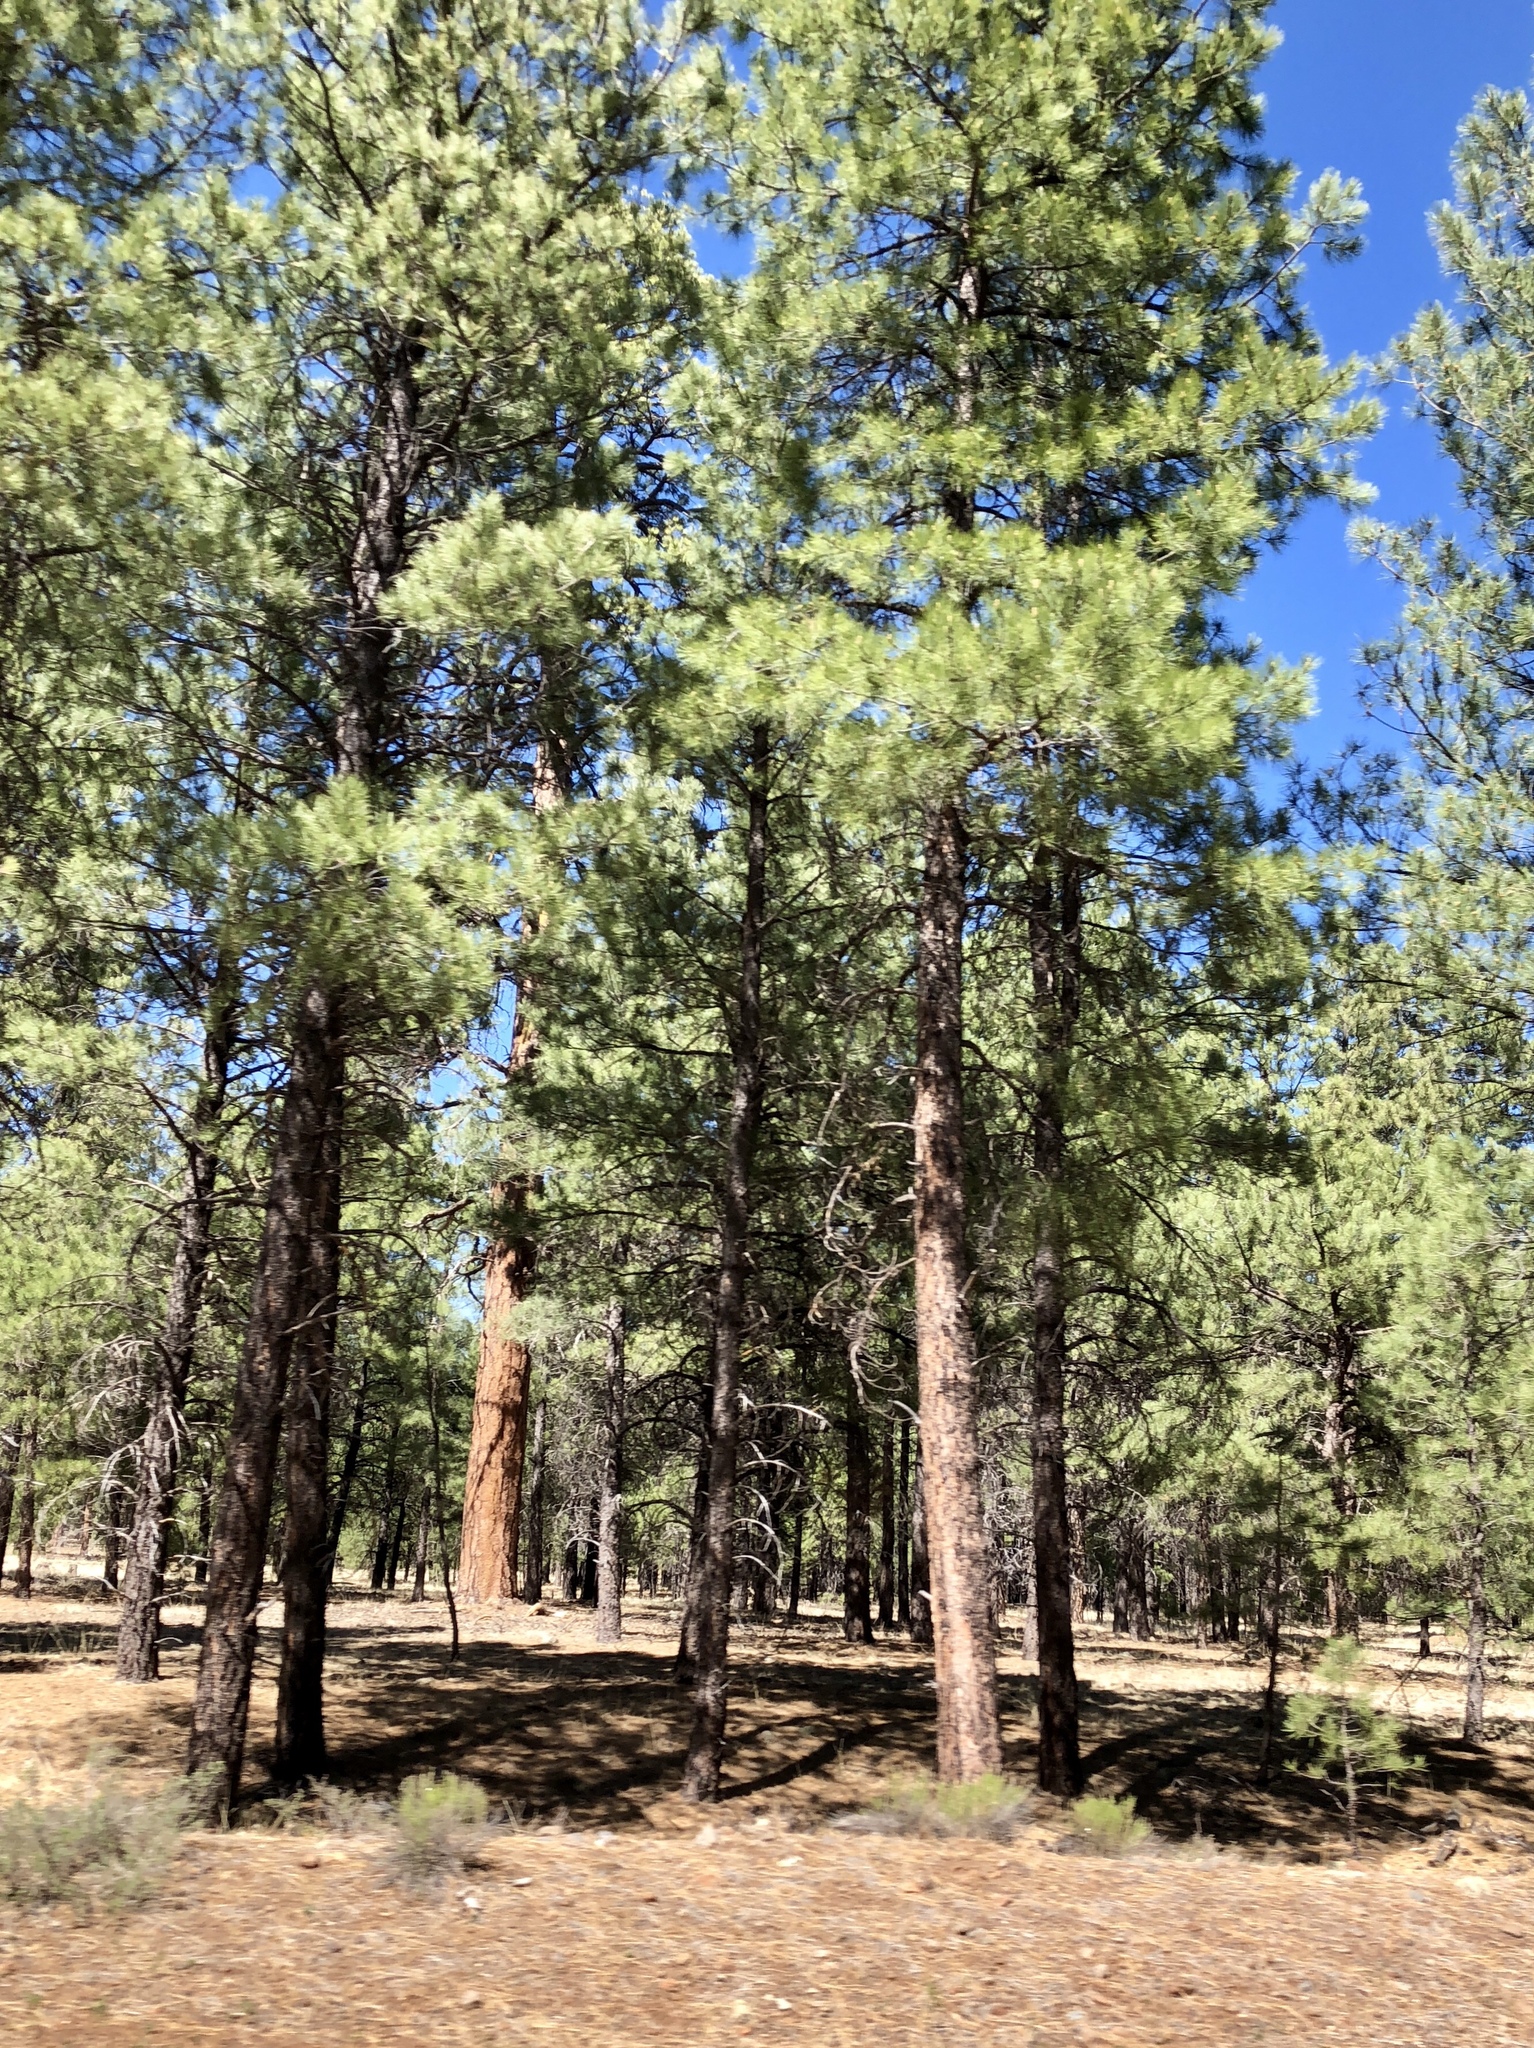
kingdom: Plantae
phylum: Tracheophyta
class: Pinopsida
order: Pinales
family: Pinaceae
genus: Pinus
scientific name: Pinus ponderosa
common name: Western yellow-pine
